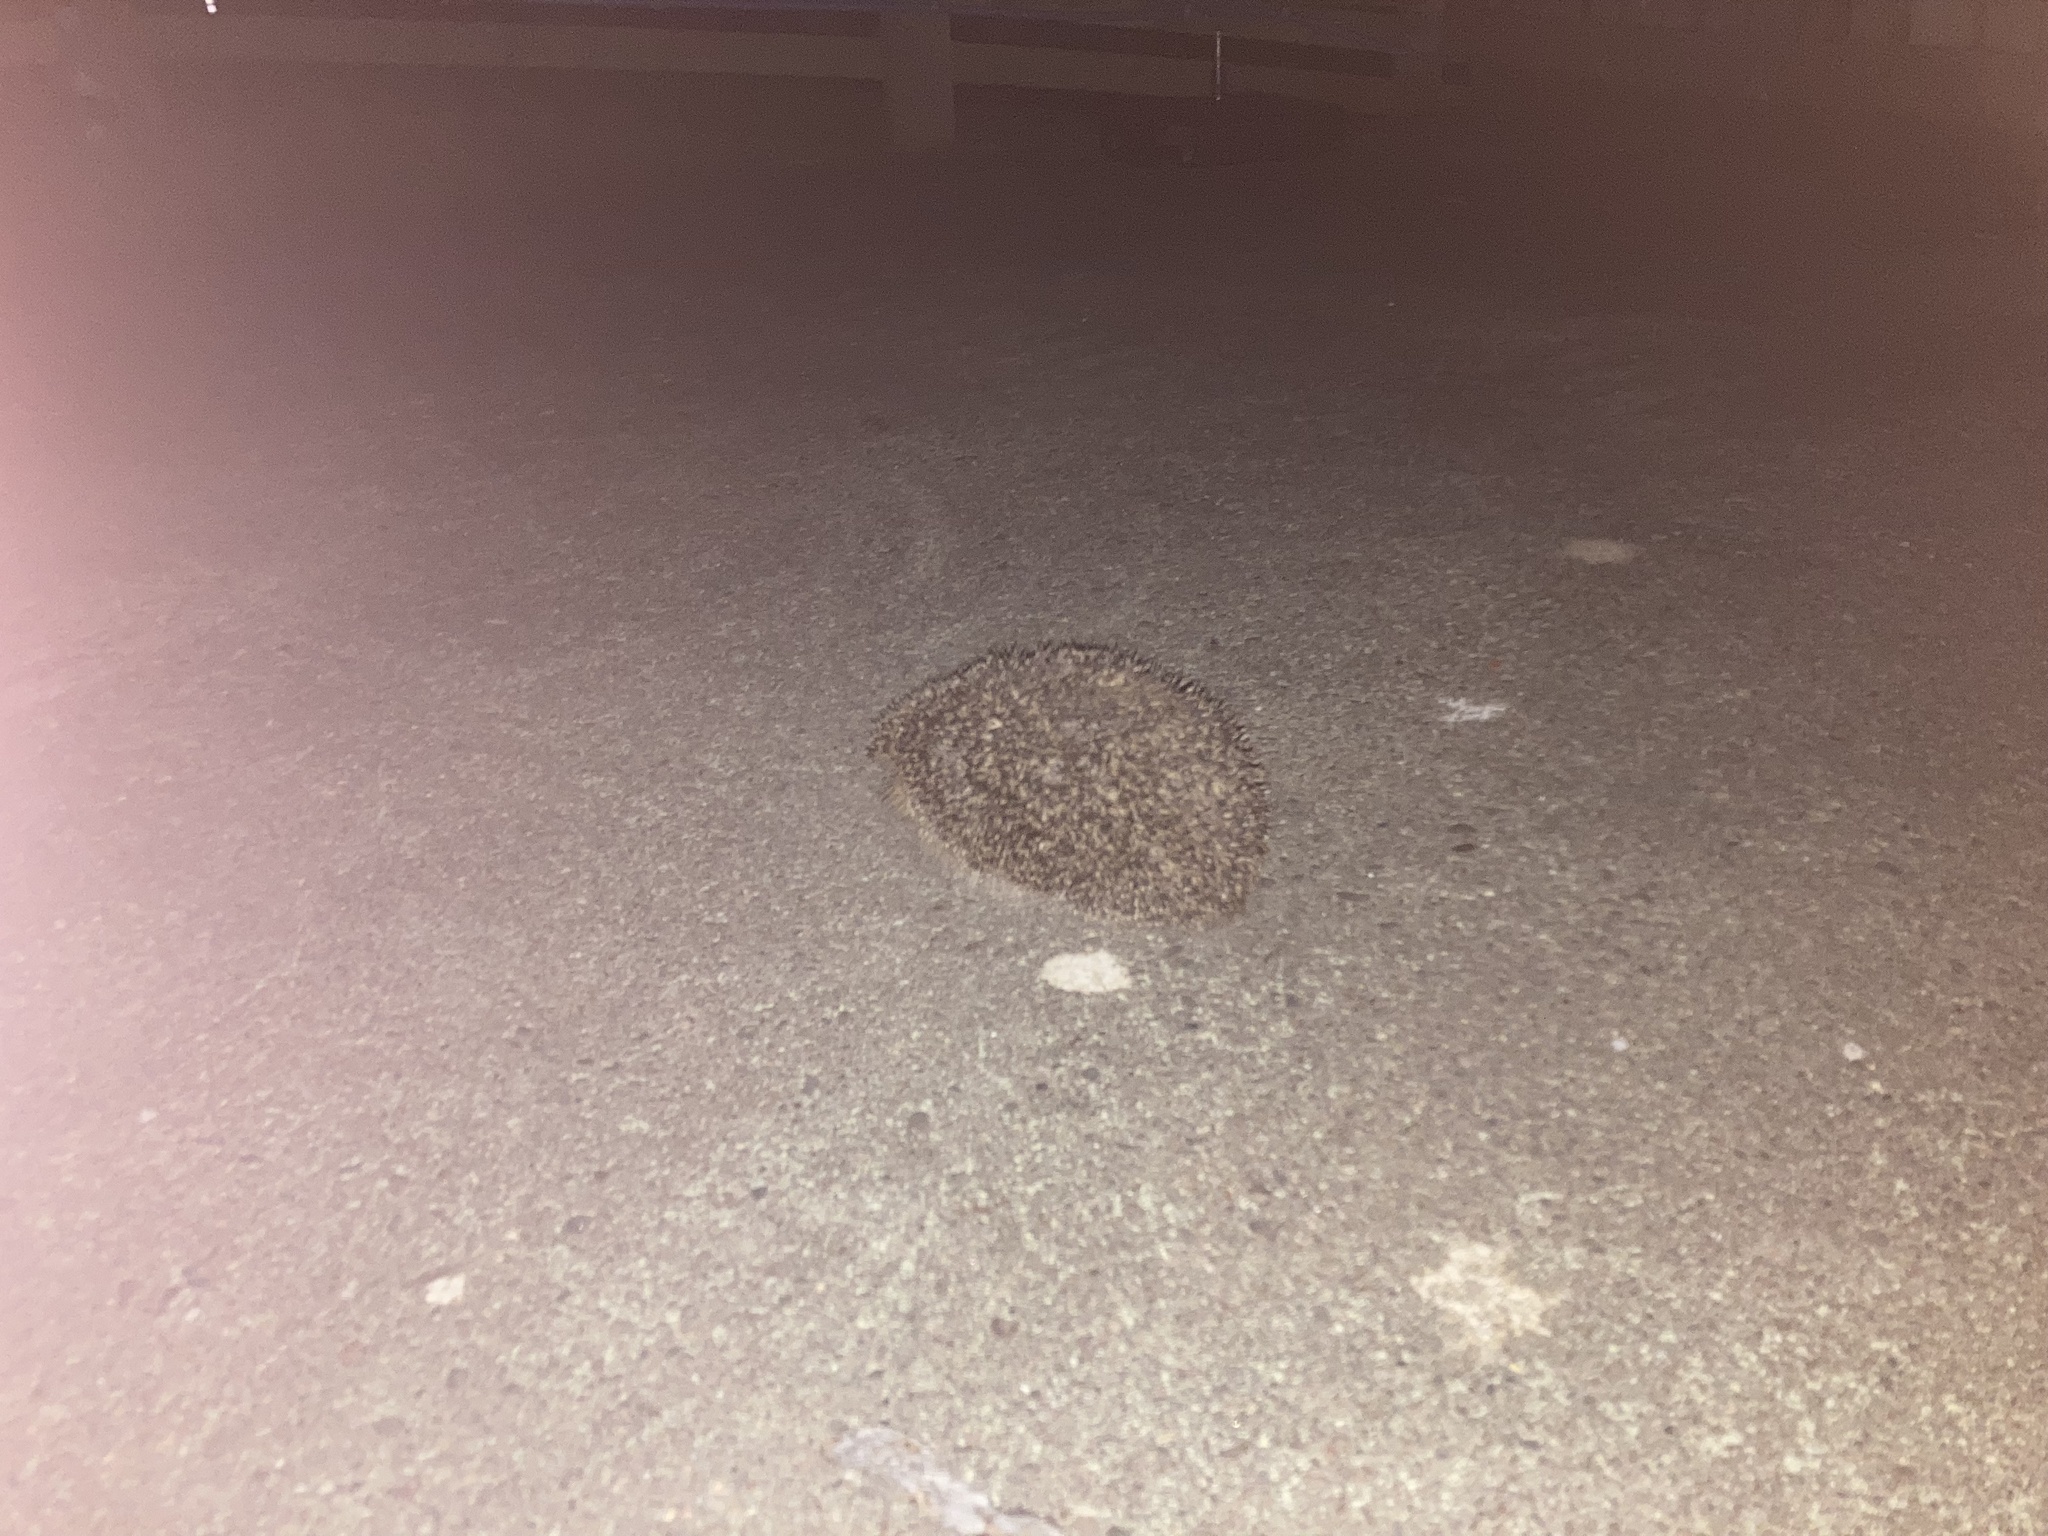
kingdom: Animalia
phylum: Chordata
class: Mammalia
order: Erinaceomorpha
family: Erinaceidae
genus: Erinaceus
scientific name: Erinaceus europaeus
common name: West european hedgehog
